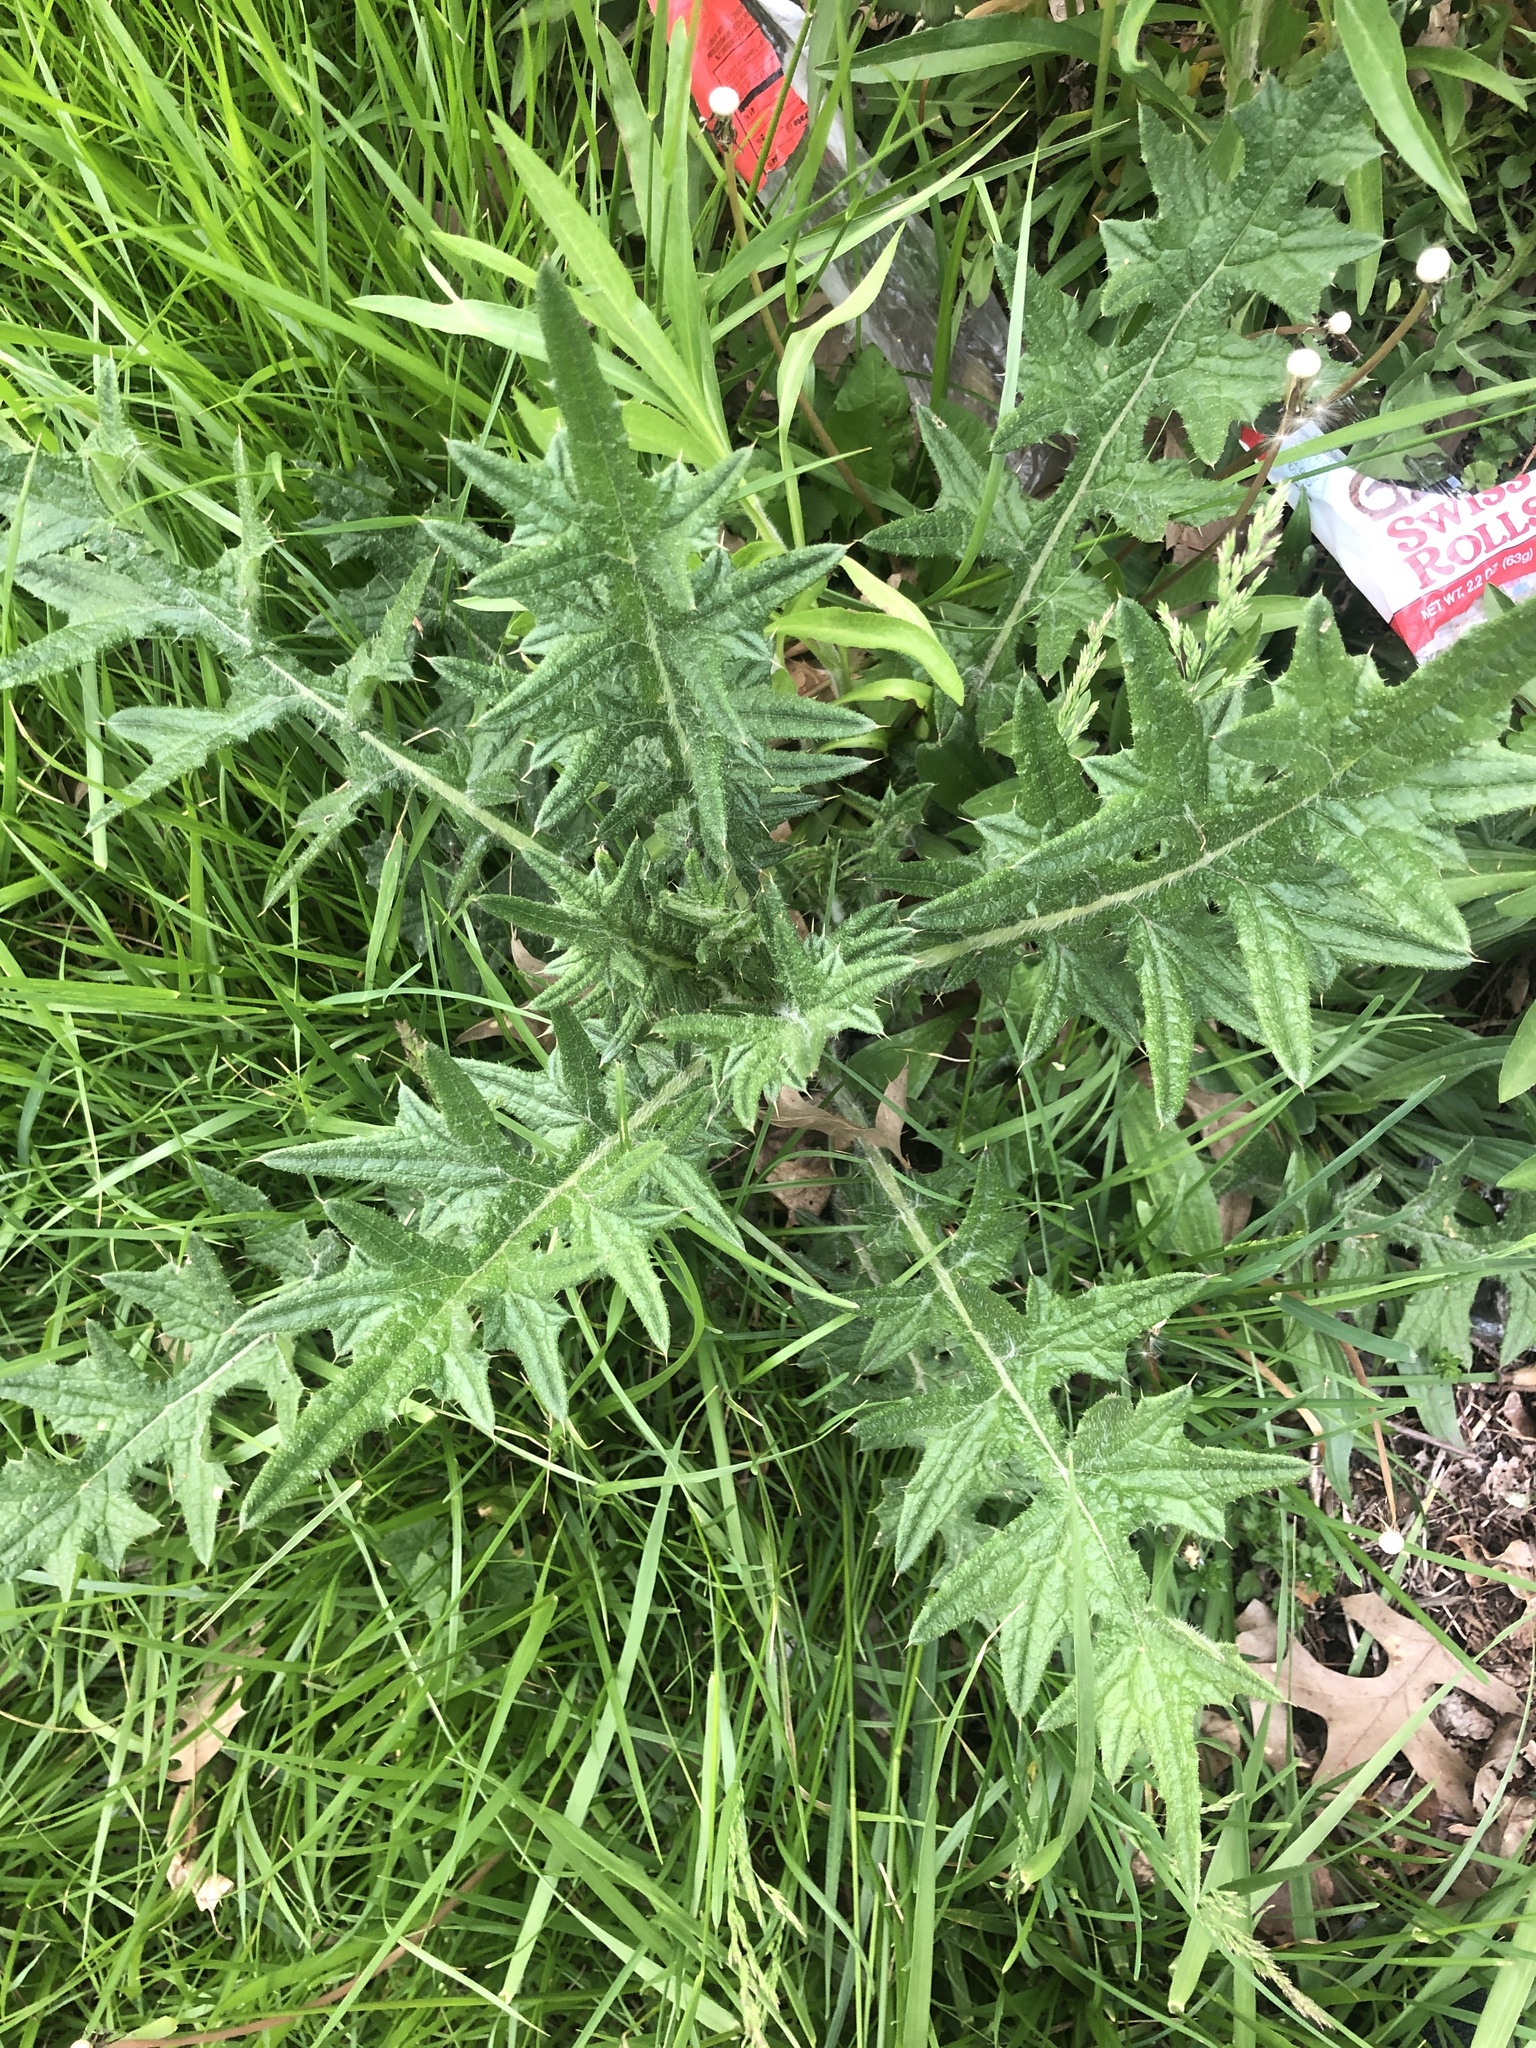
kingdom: Plantae
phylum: Tracheophyta
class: Magnoliopsida
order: Asterales
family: Asteraceae
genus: Cirsium
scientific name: Cirsium vulgare
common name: Bull thistle
